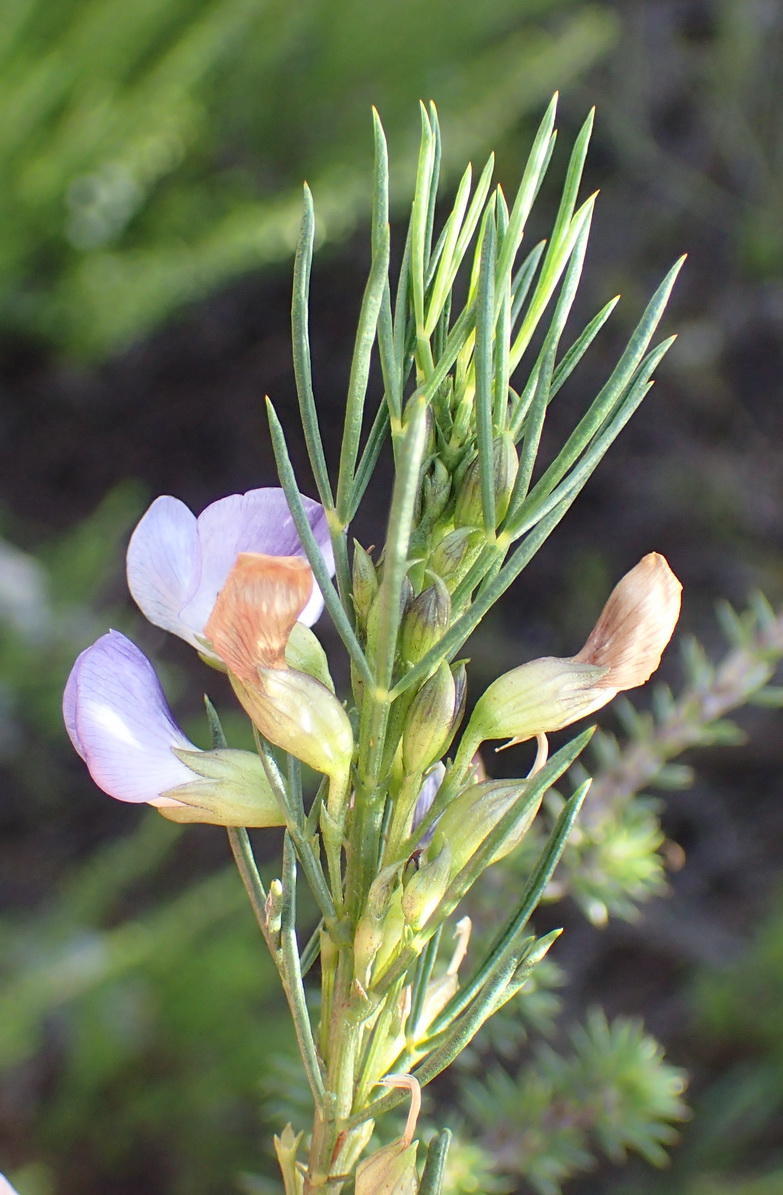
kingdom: Plantae
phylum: Tracheophyta
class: Magnoliopsida
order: Fabales
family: Fabaceae
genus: Psoralea
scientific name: Psoralea diturnerae
